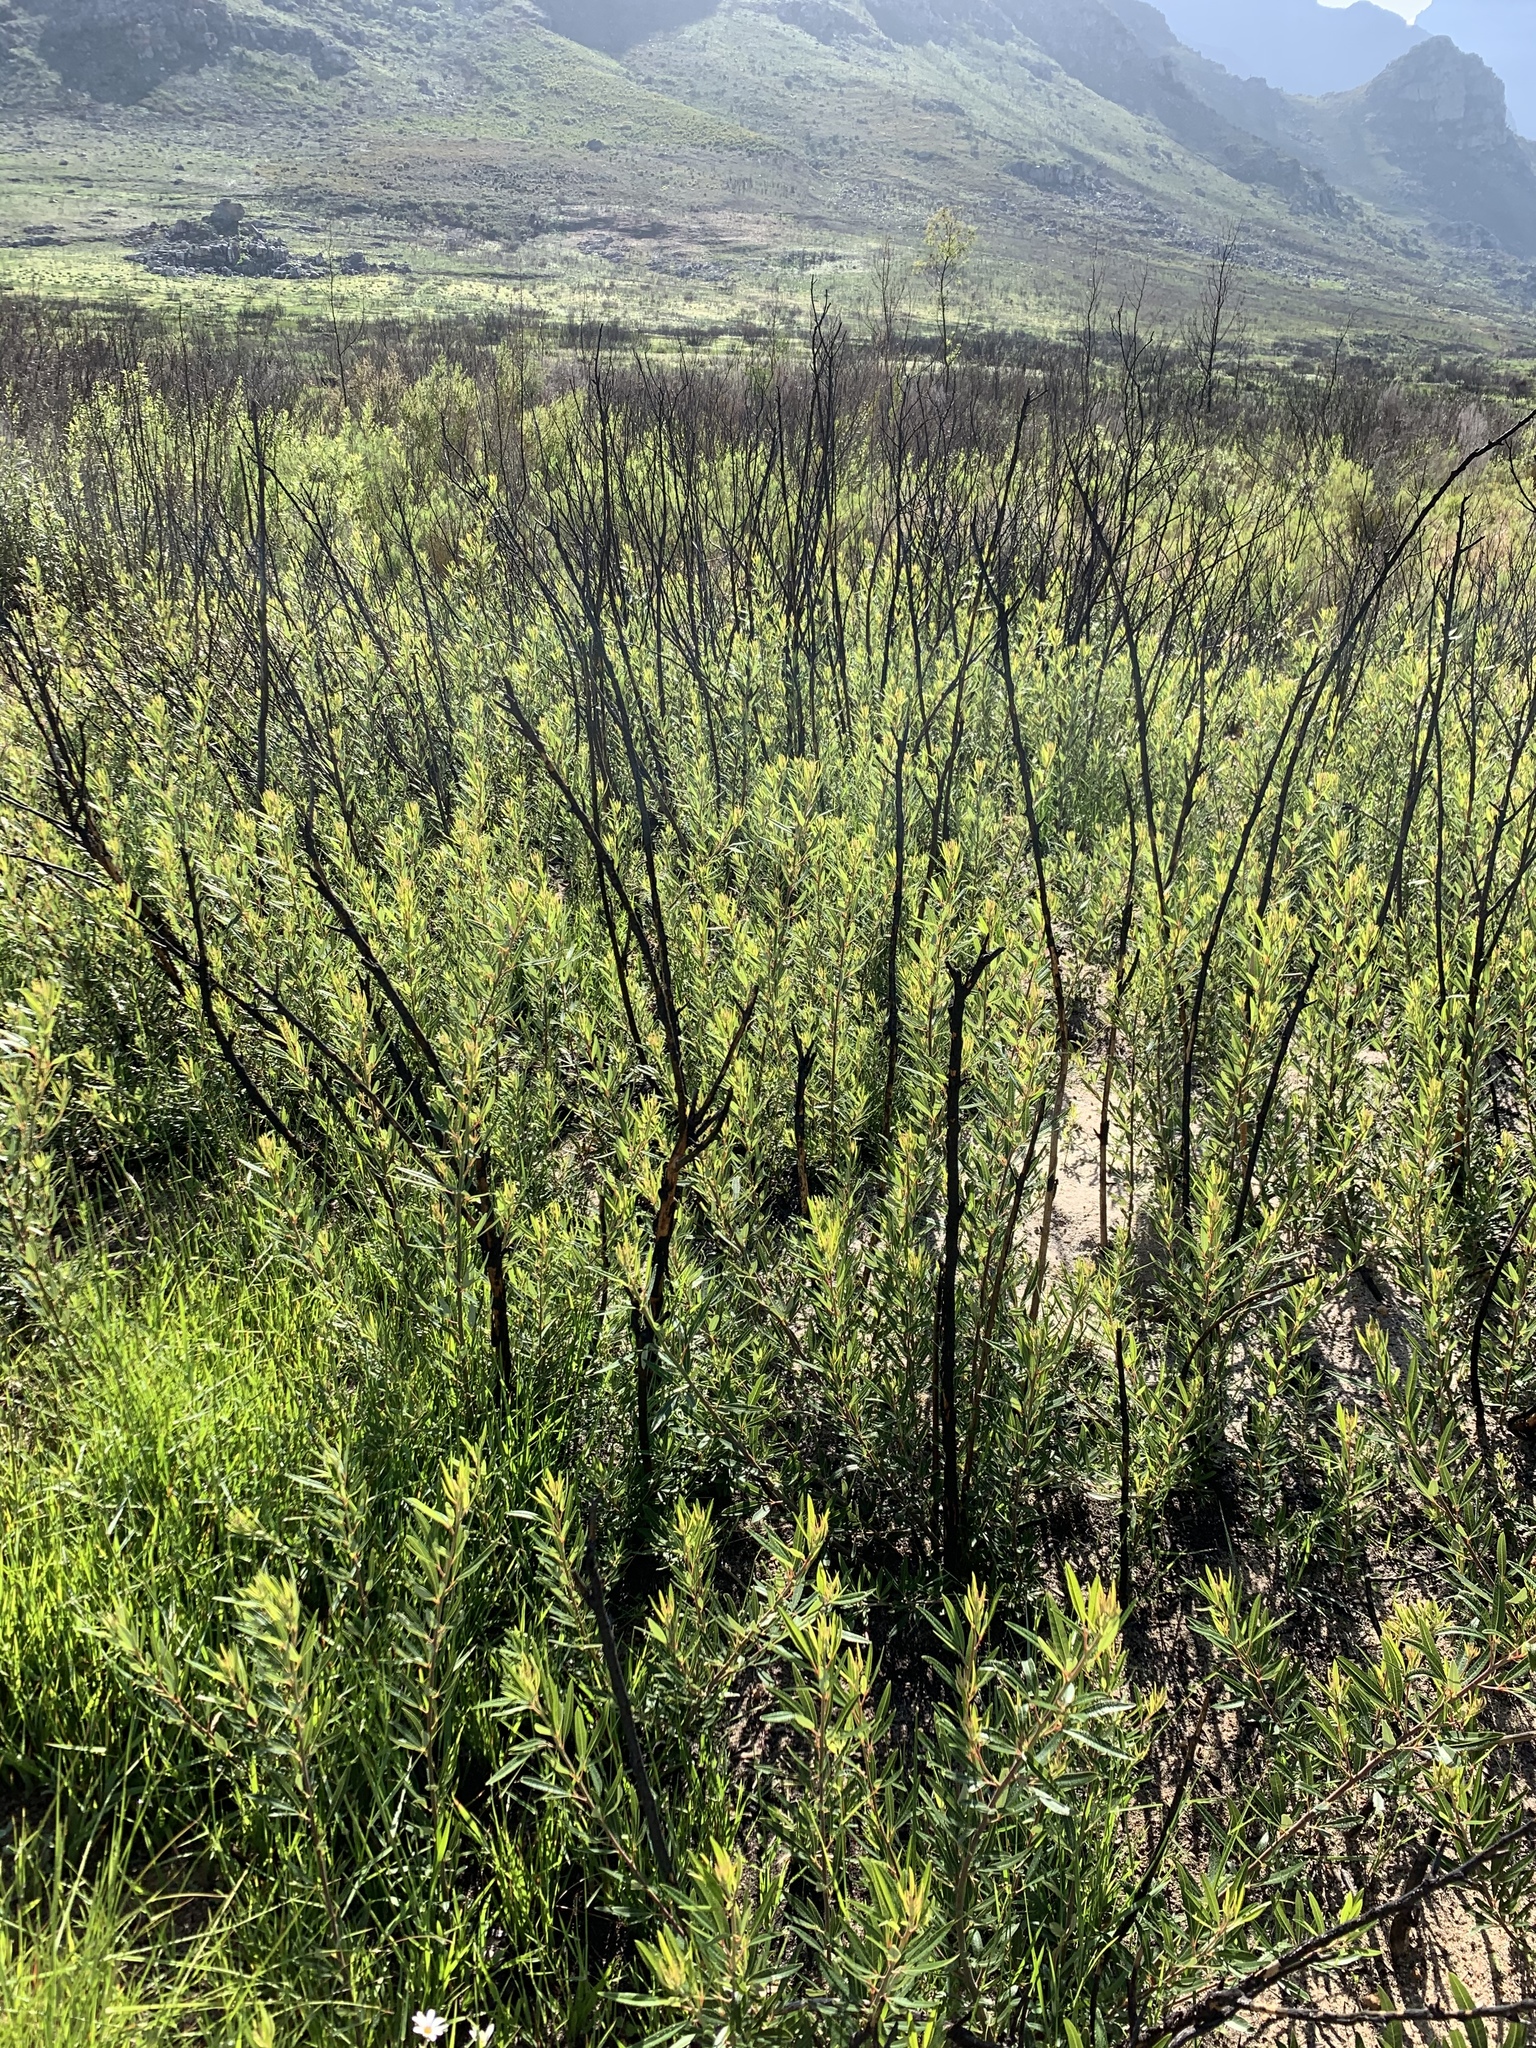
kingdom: Plantae
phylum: Tracheophyta
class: Magnoliopsida
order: Sapindales
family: Anacardiaceae
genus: Searsia
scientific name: Searsia angustifolia
